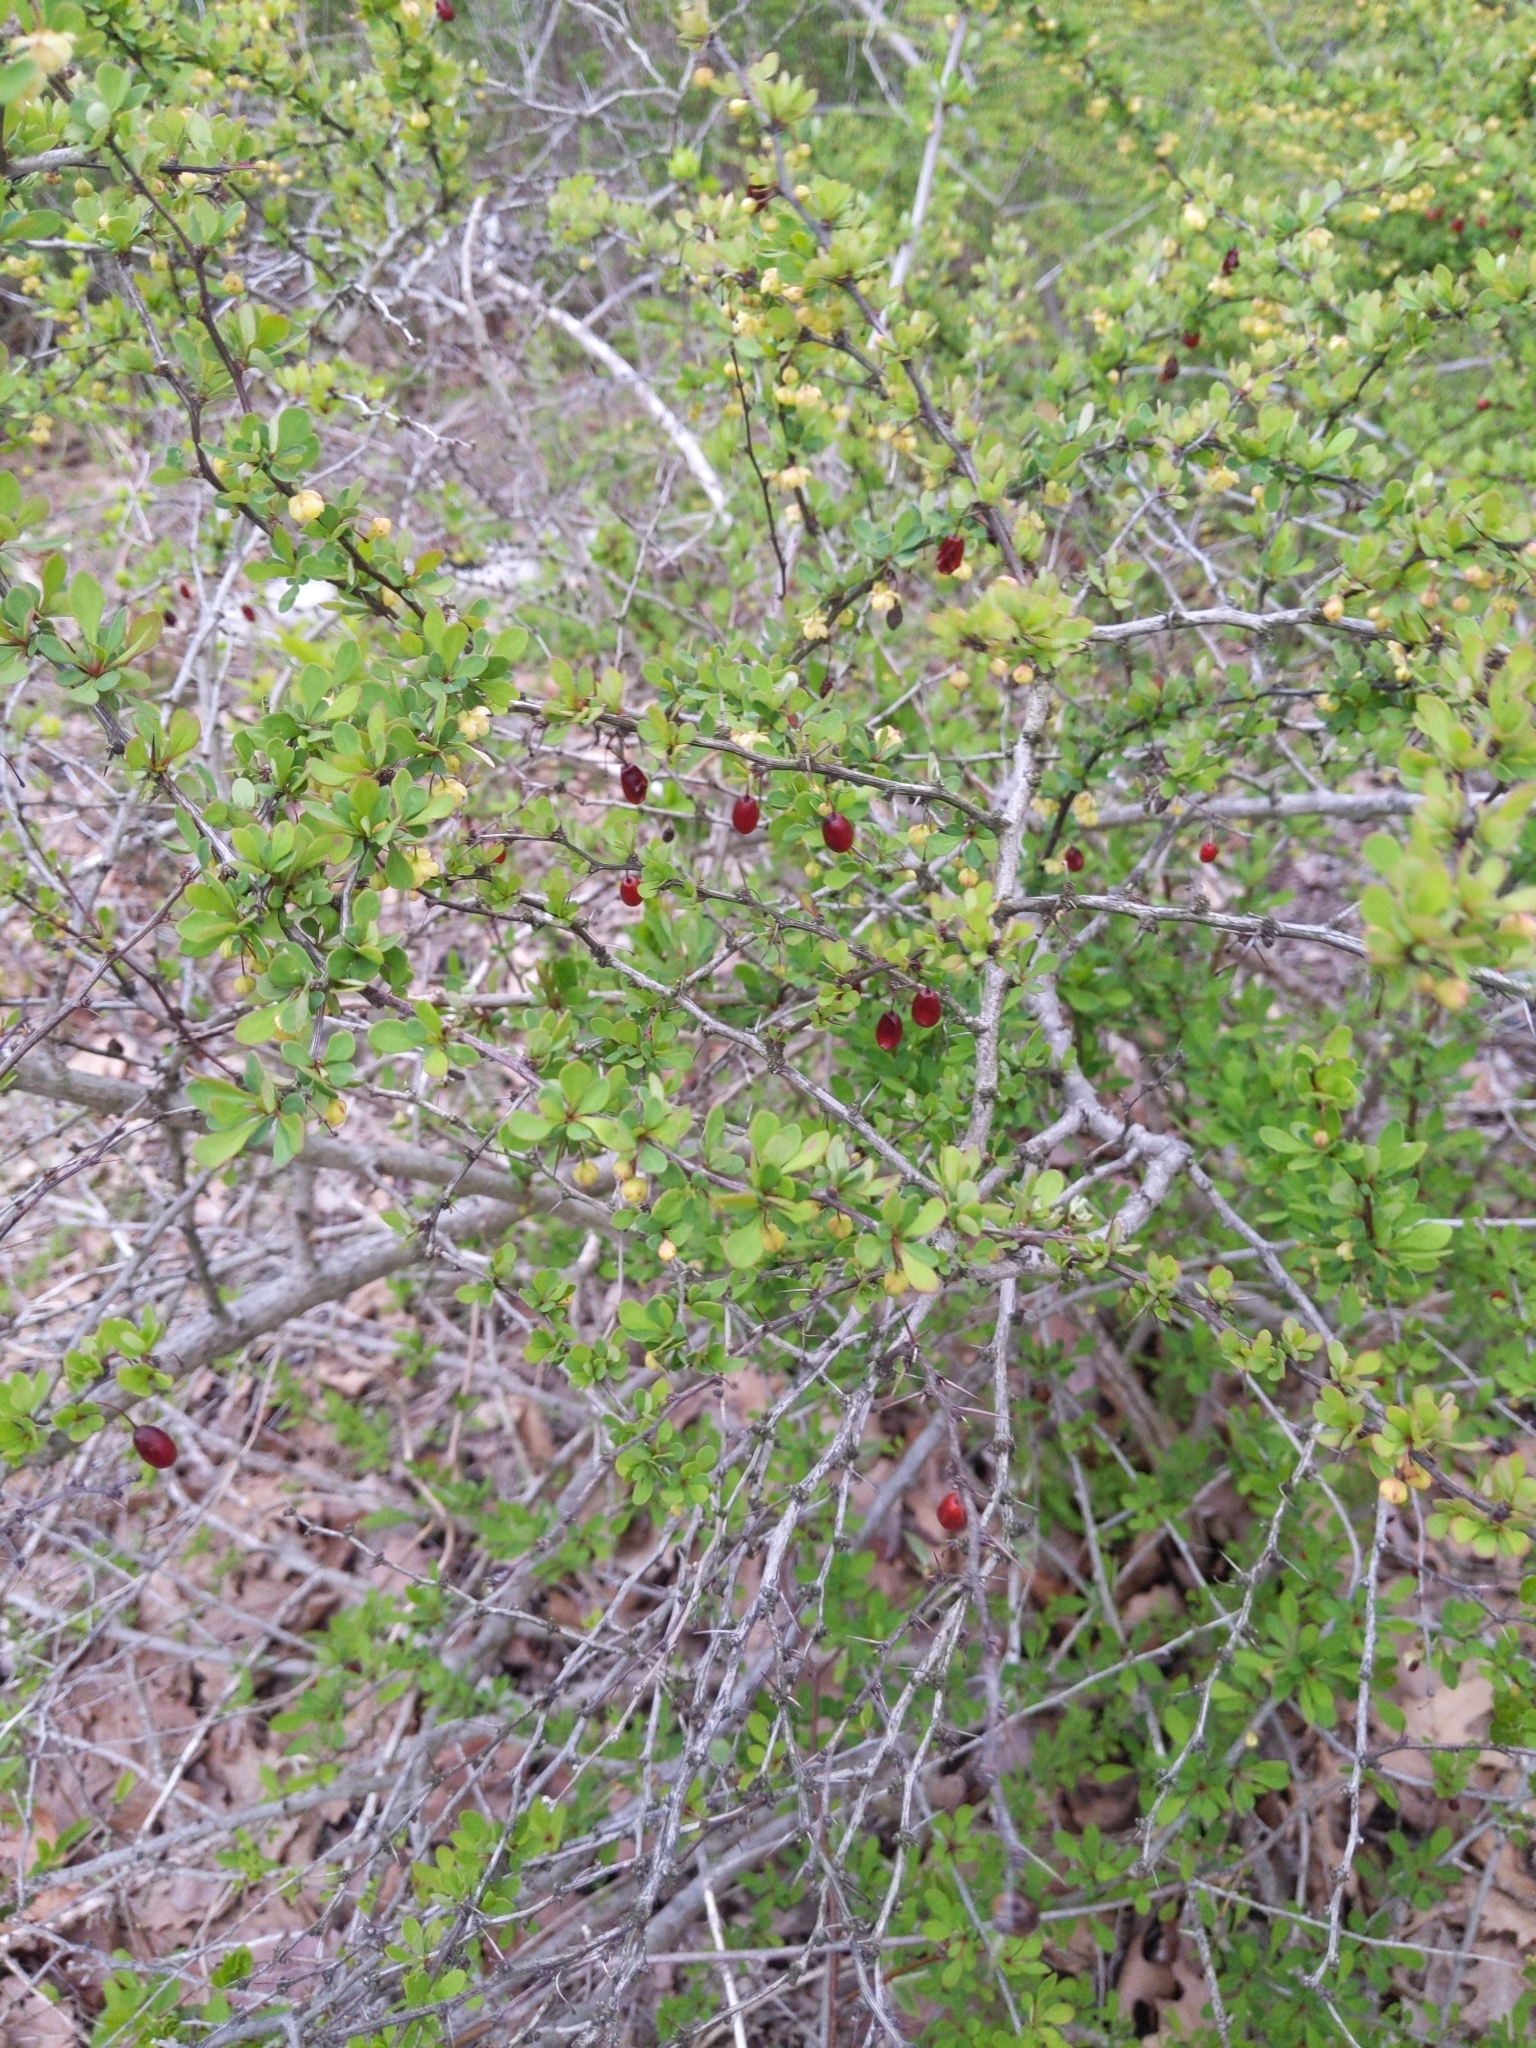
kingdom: Plantae
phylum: Tracheophyta
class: Magnoliopsida
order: Ranunculales
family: Berberidaceae
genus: Berberis
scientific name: Berberis thunbergii
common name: Japanese barberry
